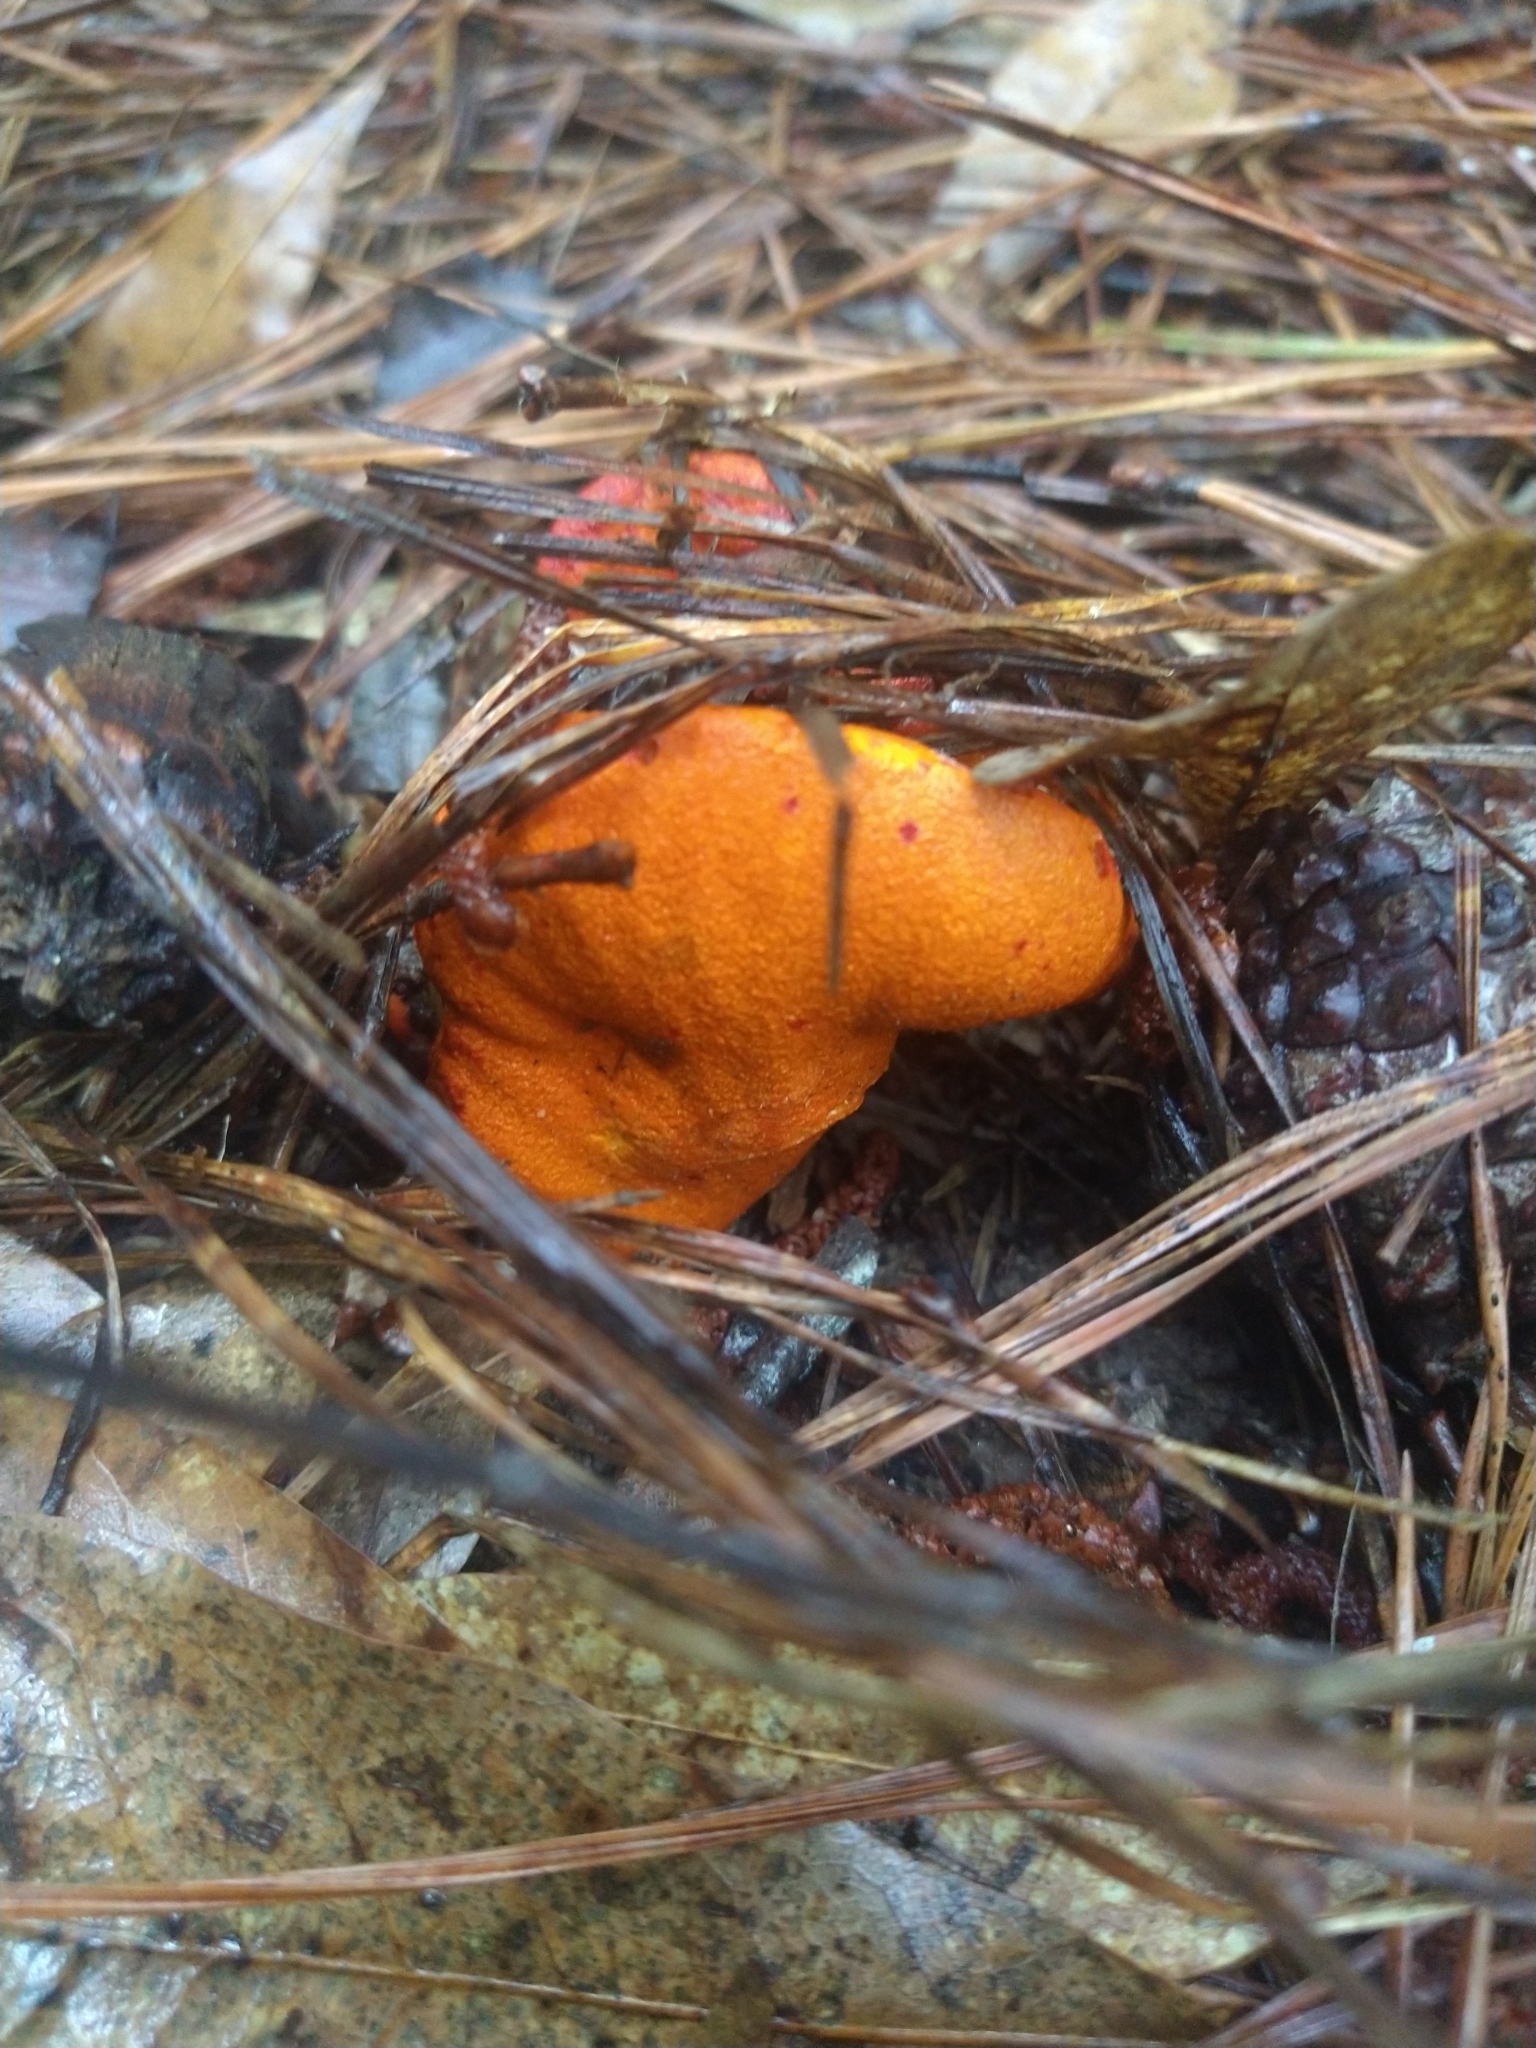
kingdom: Fungi
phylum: Ascomycota
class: Sordariomycetes
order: Hypocreales
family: Hypocreaceae
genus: Hypomyces
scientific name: Hypomyces lactifluorum
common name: Lobster mushroom
